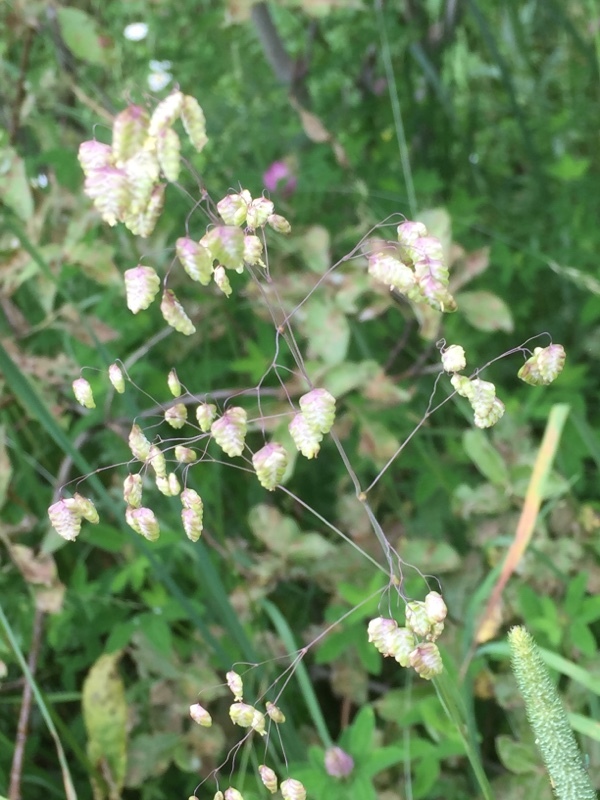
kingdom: Plantae
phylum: Tracheophyta
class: Liliopsida
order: Poales
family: Poaceae
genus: Briza
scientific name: Briza minor
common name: Lesser quaking-grass
